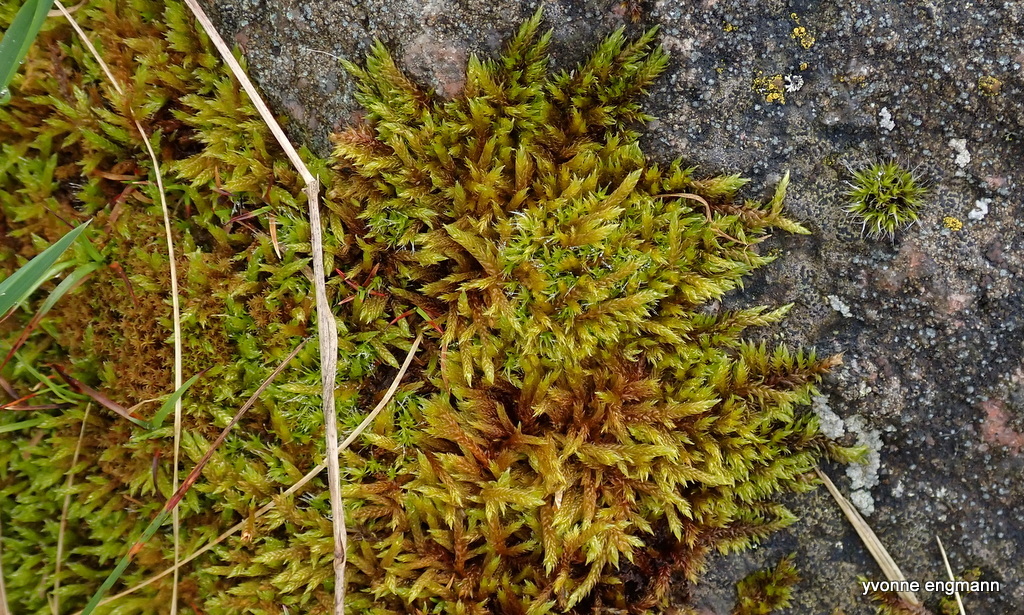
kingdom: Plantae
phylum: Bryophyta
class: Bryopsida
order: Hypnales
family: Hypnaceae
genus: Hypnum
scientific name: Hypnum cupressiforme
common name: Cypress-leaved plait-moss
